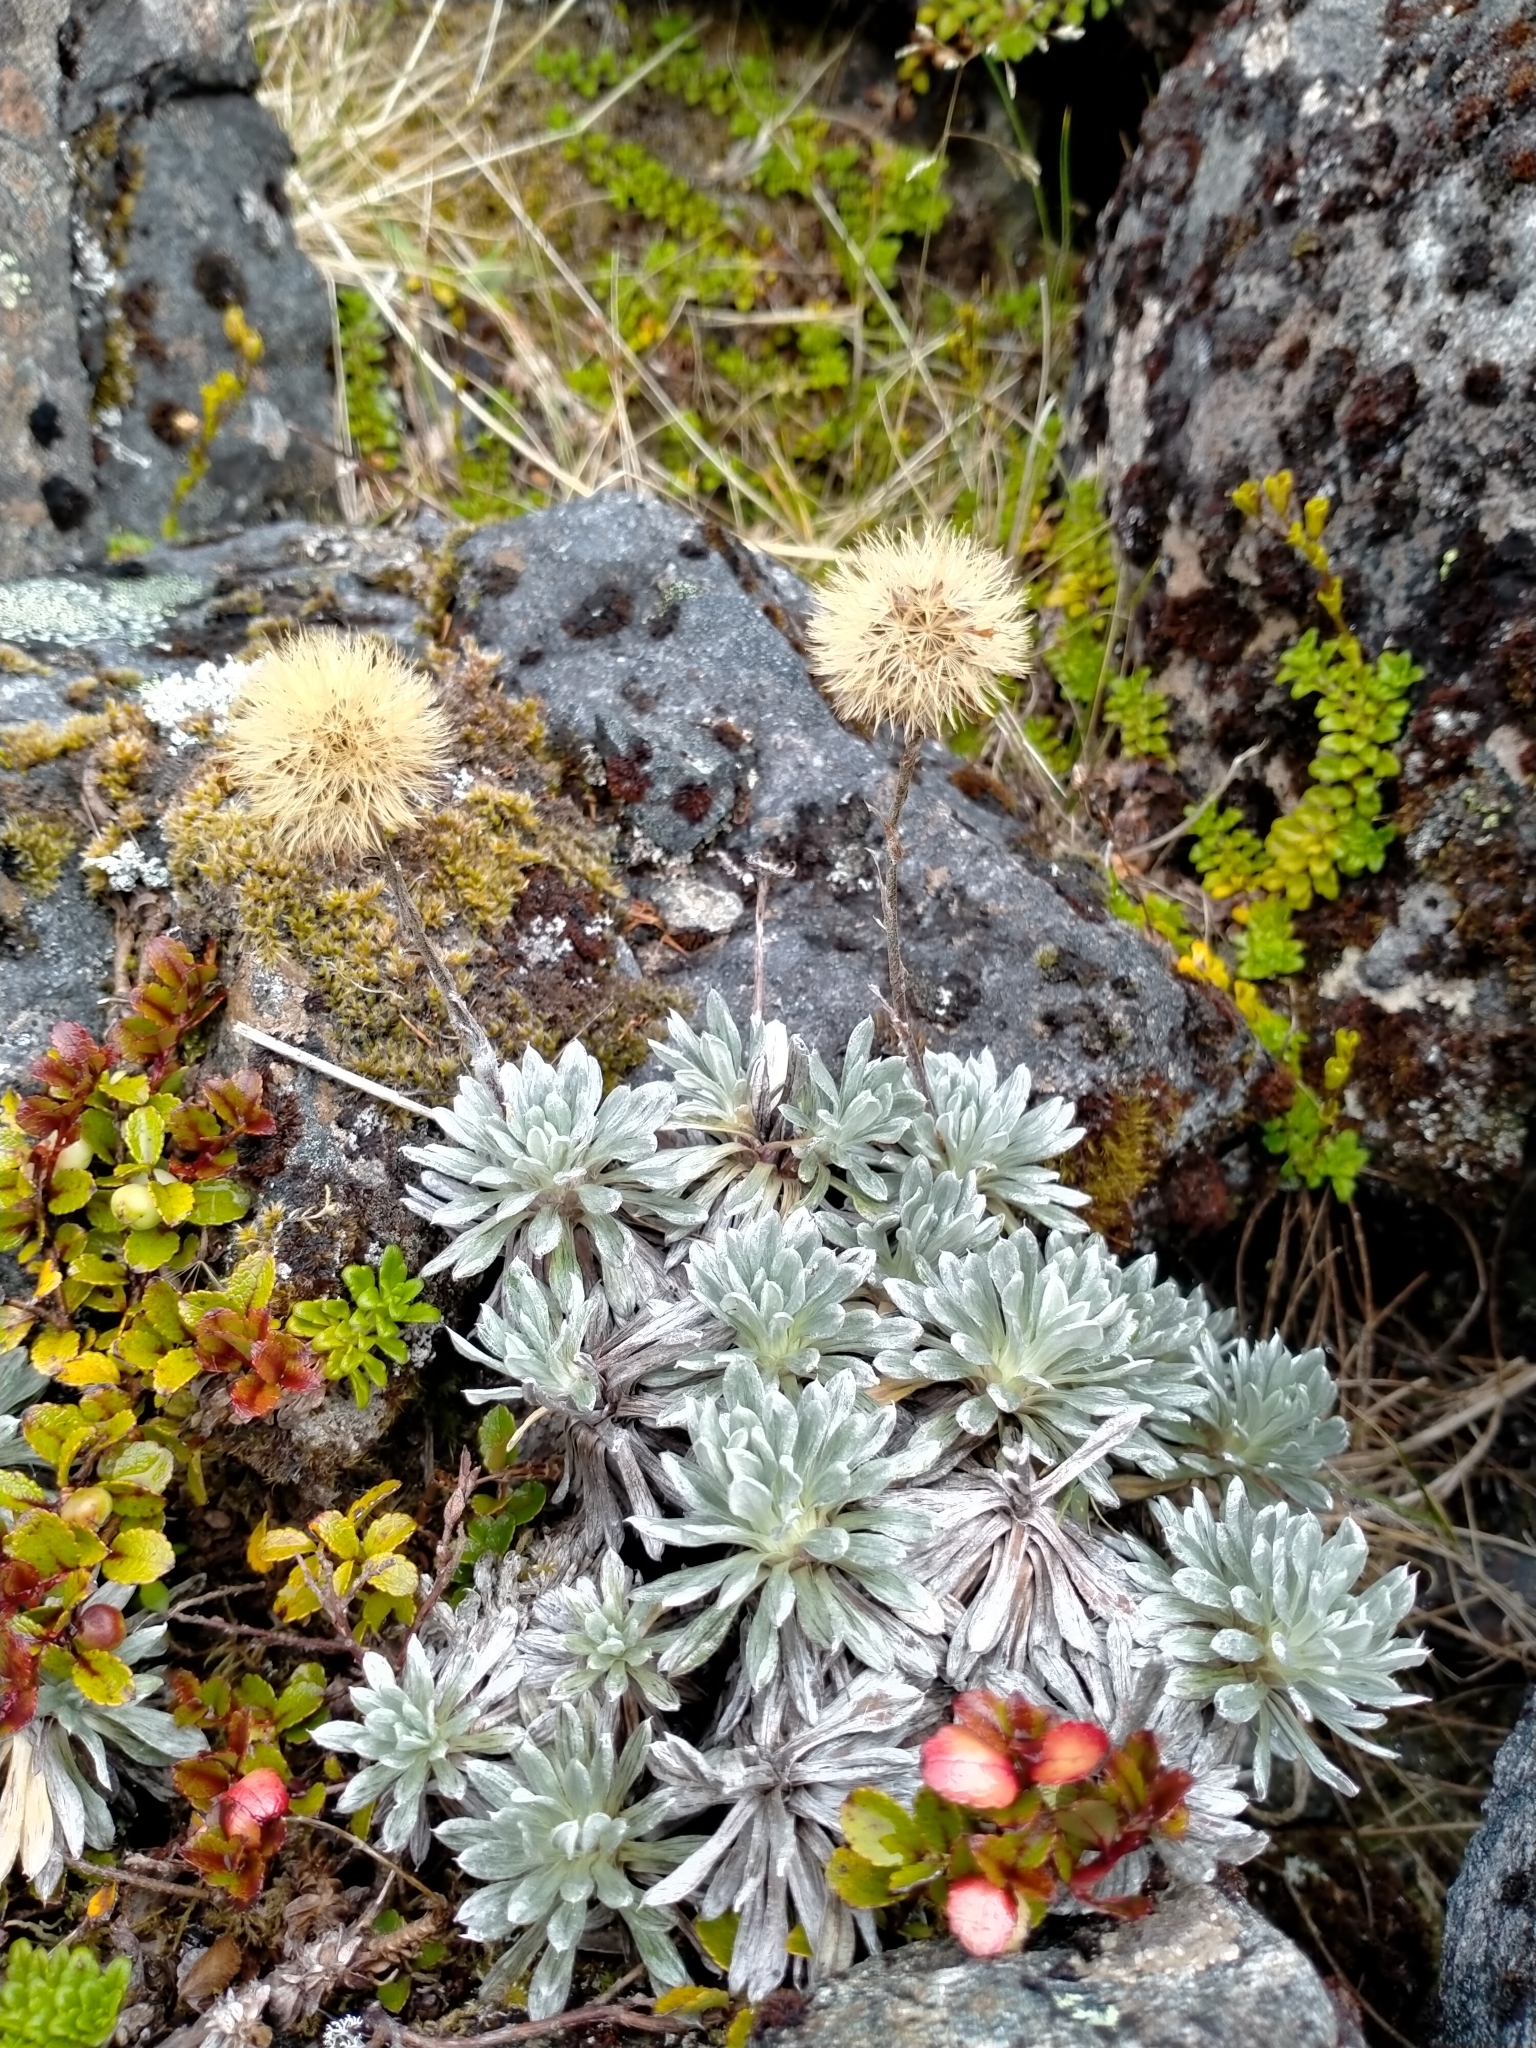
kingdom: Plantae
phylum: Tracheophyta
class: Magnoliopsida
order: Asterales
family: Asteraceae
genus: Celmisia
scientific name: Celmisia hectorii
